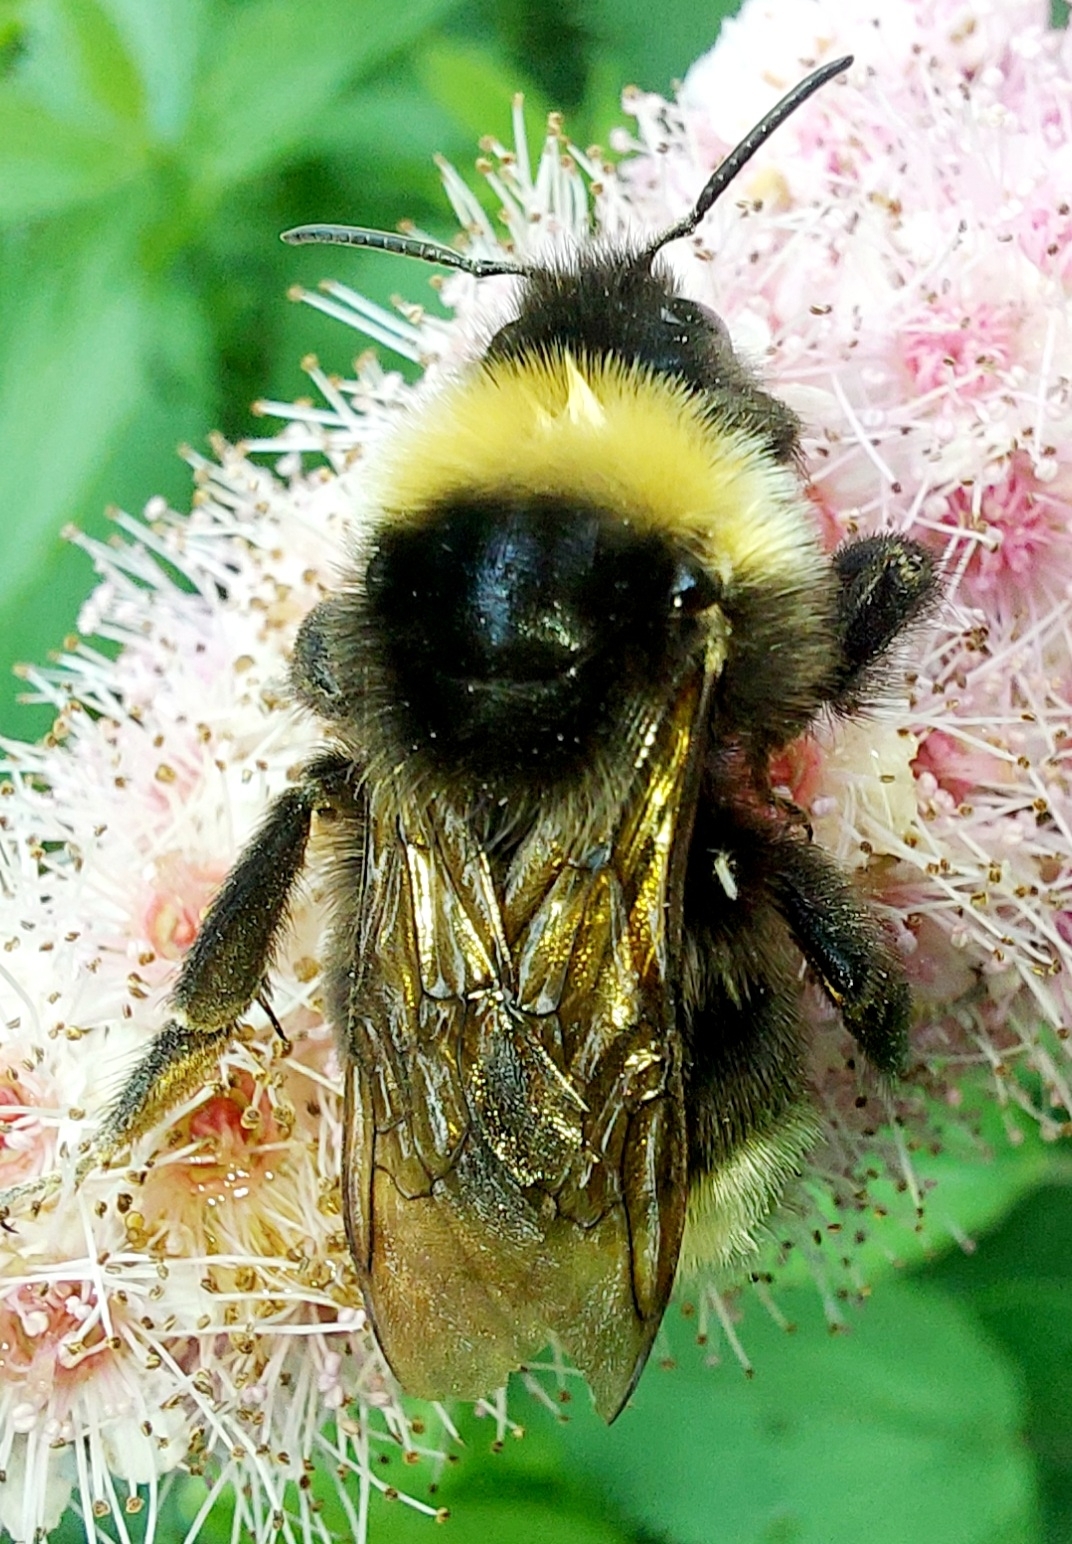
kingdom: Animalia
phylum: Arthropoda
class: Insecta
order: Hymenoptera
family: Apidae
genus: Bombus
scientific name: Bombus bohemicus
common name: Gypsy cuckoo bee
